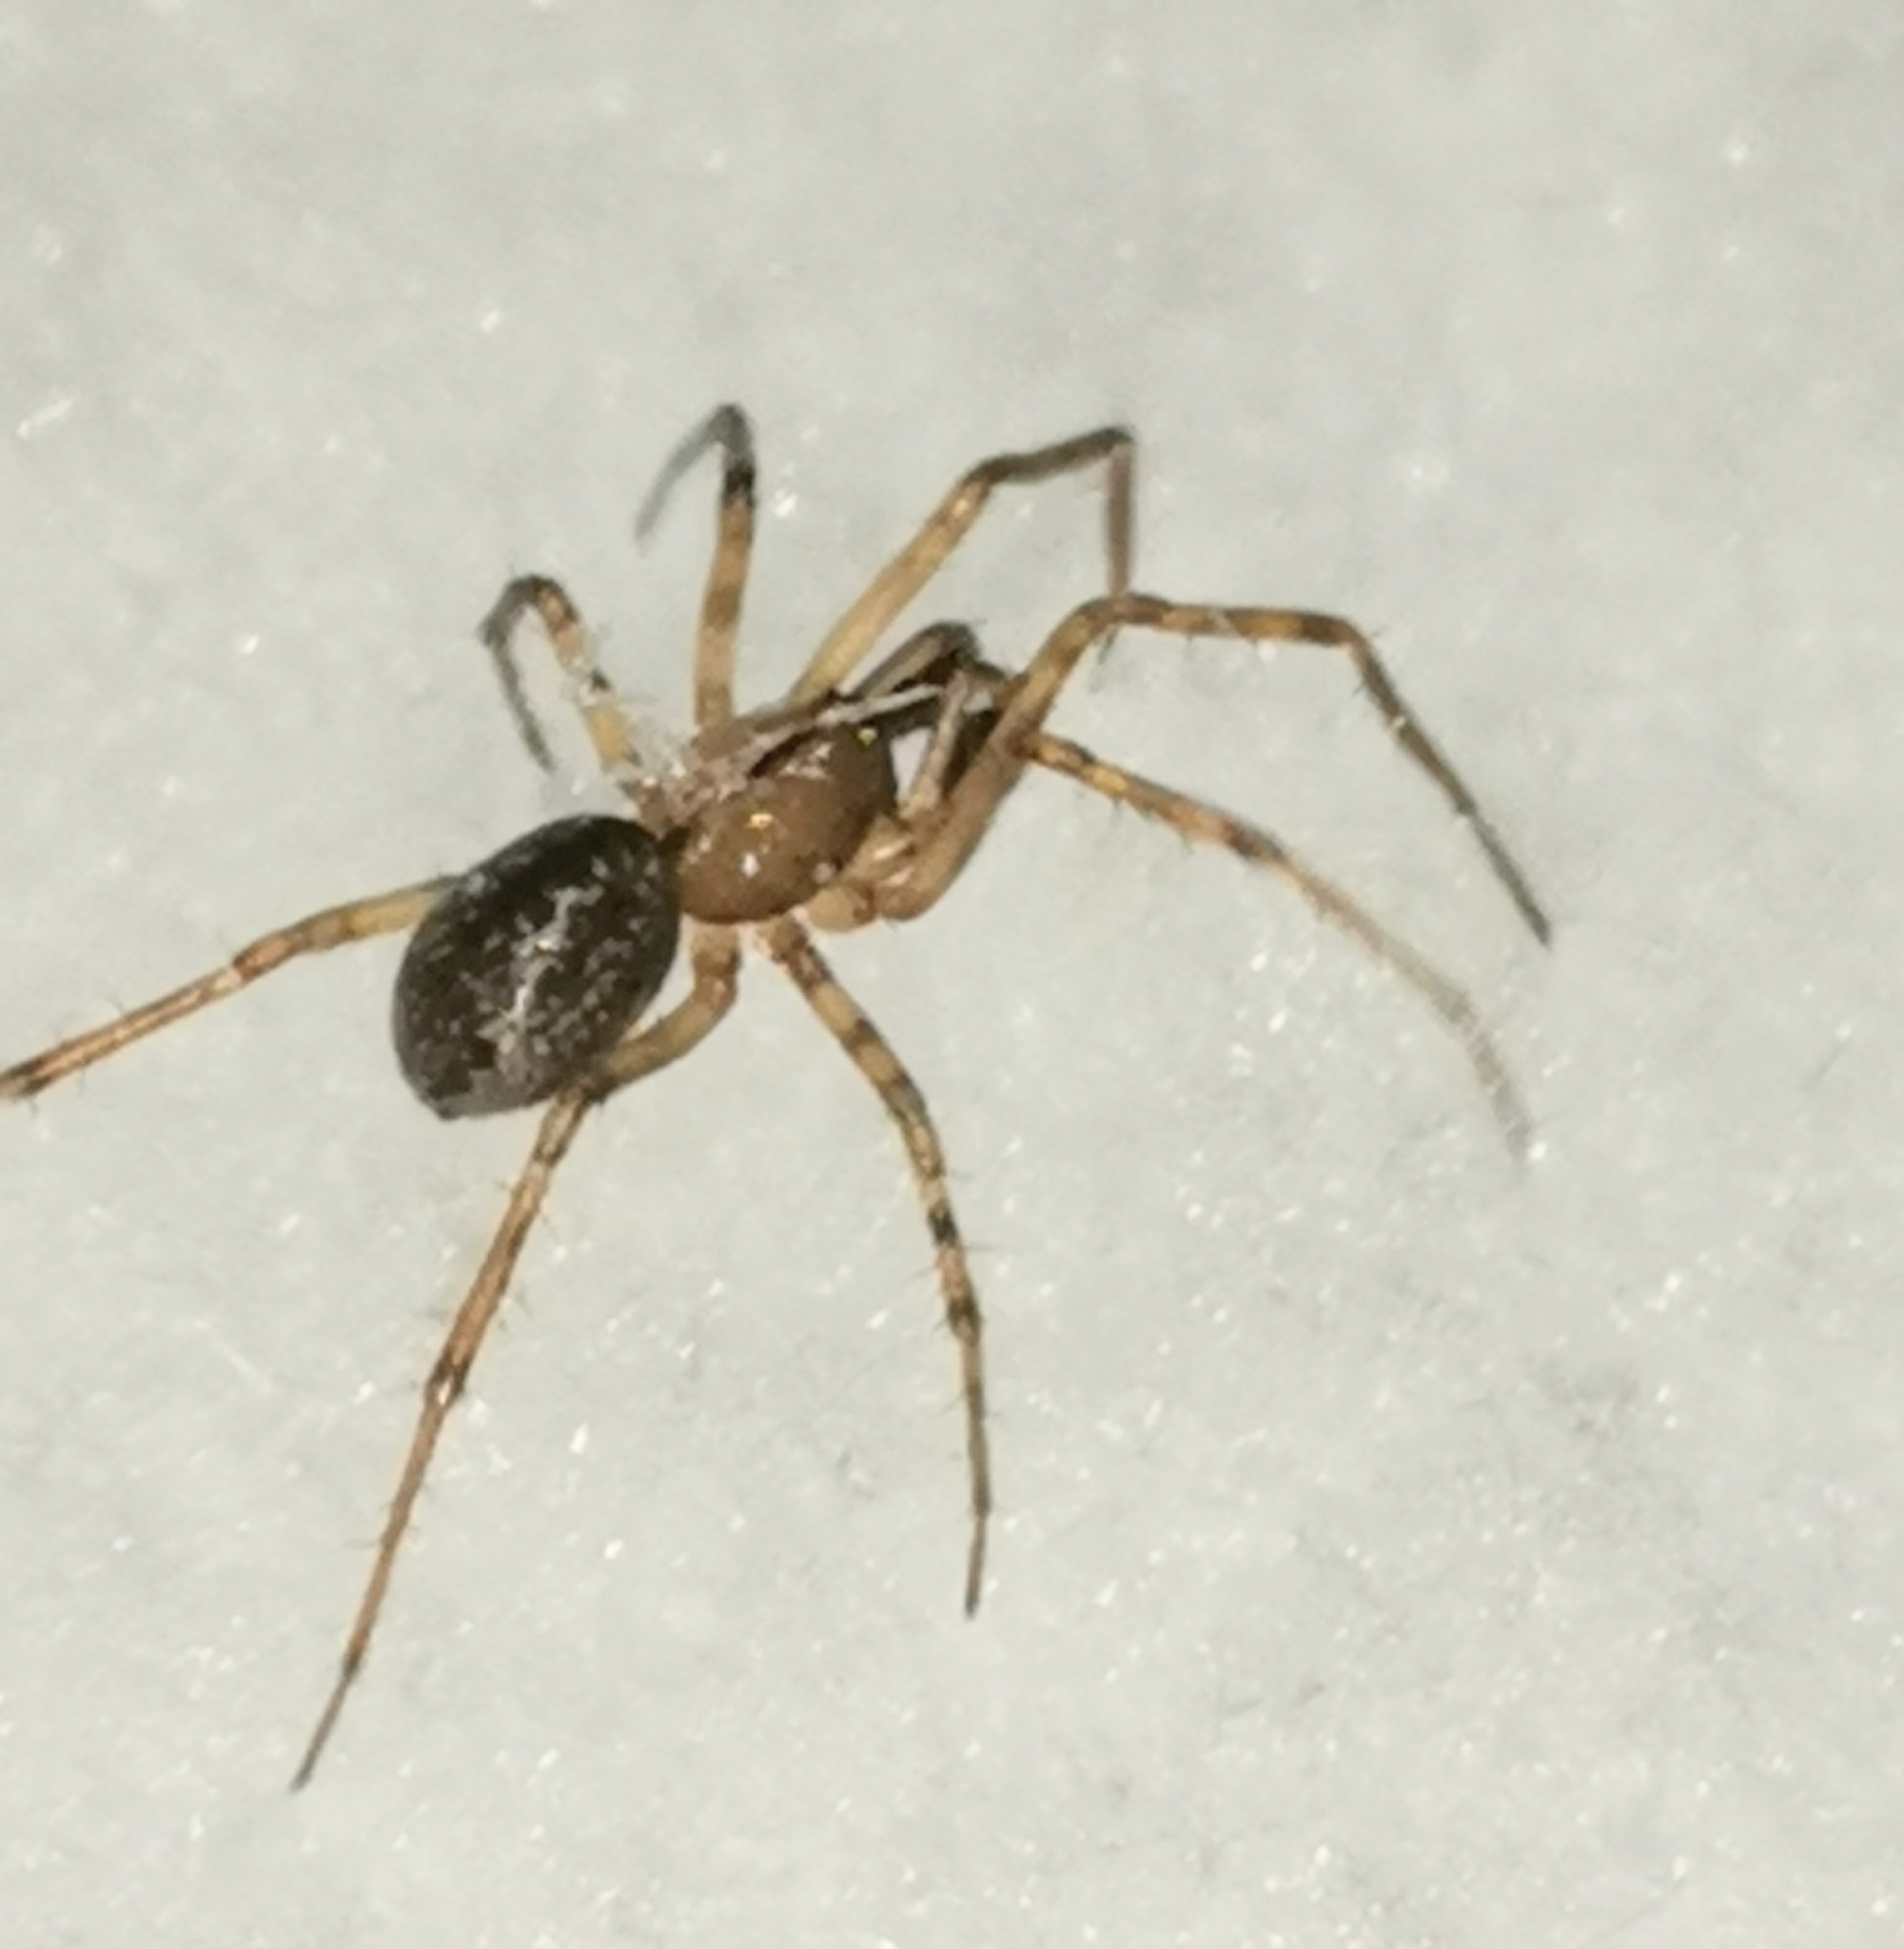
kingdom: Animalia
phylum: Arthropoda
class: Arachnida
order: Araneae
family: Linyphiidae
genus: Stemonyphantes
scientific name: Stemonyphantes lineatus
